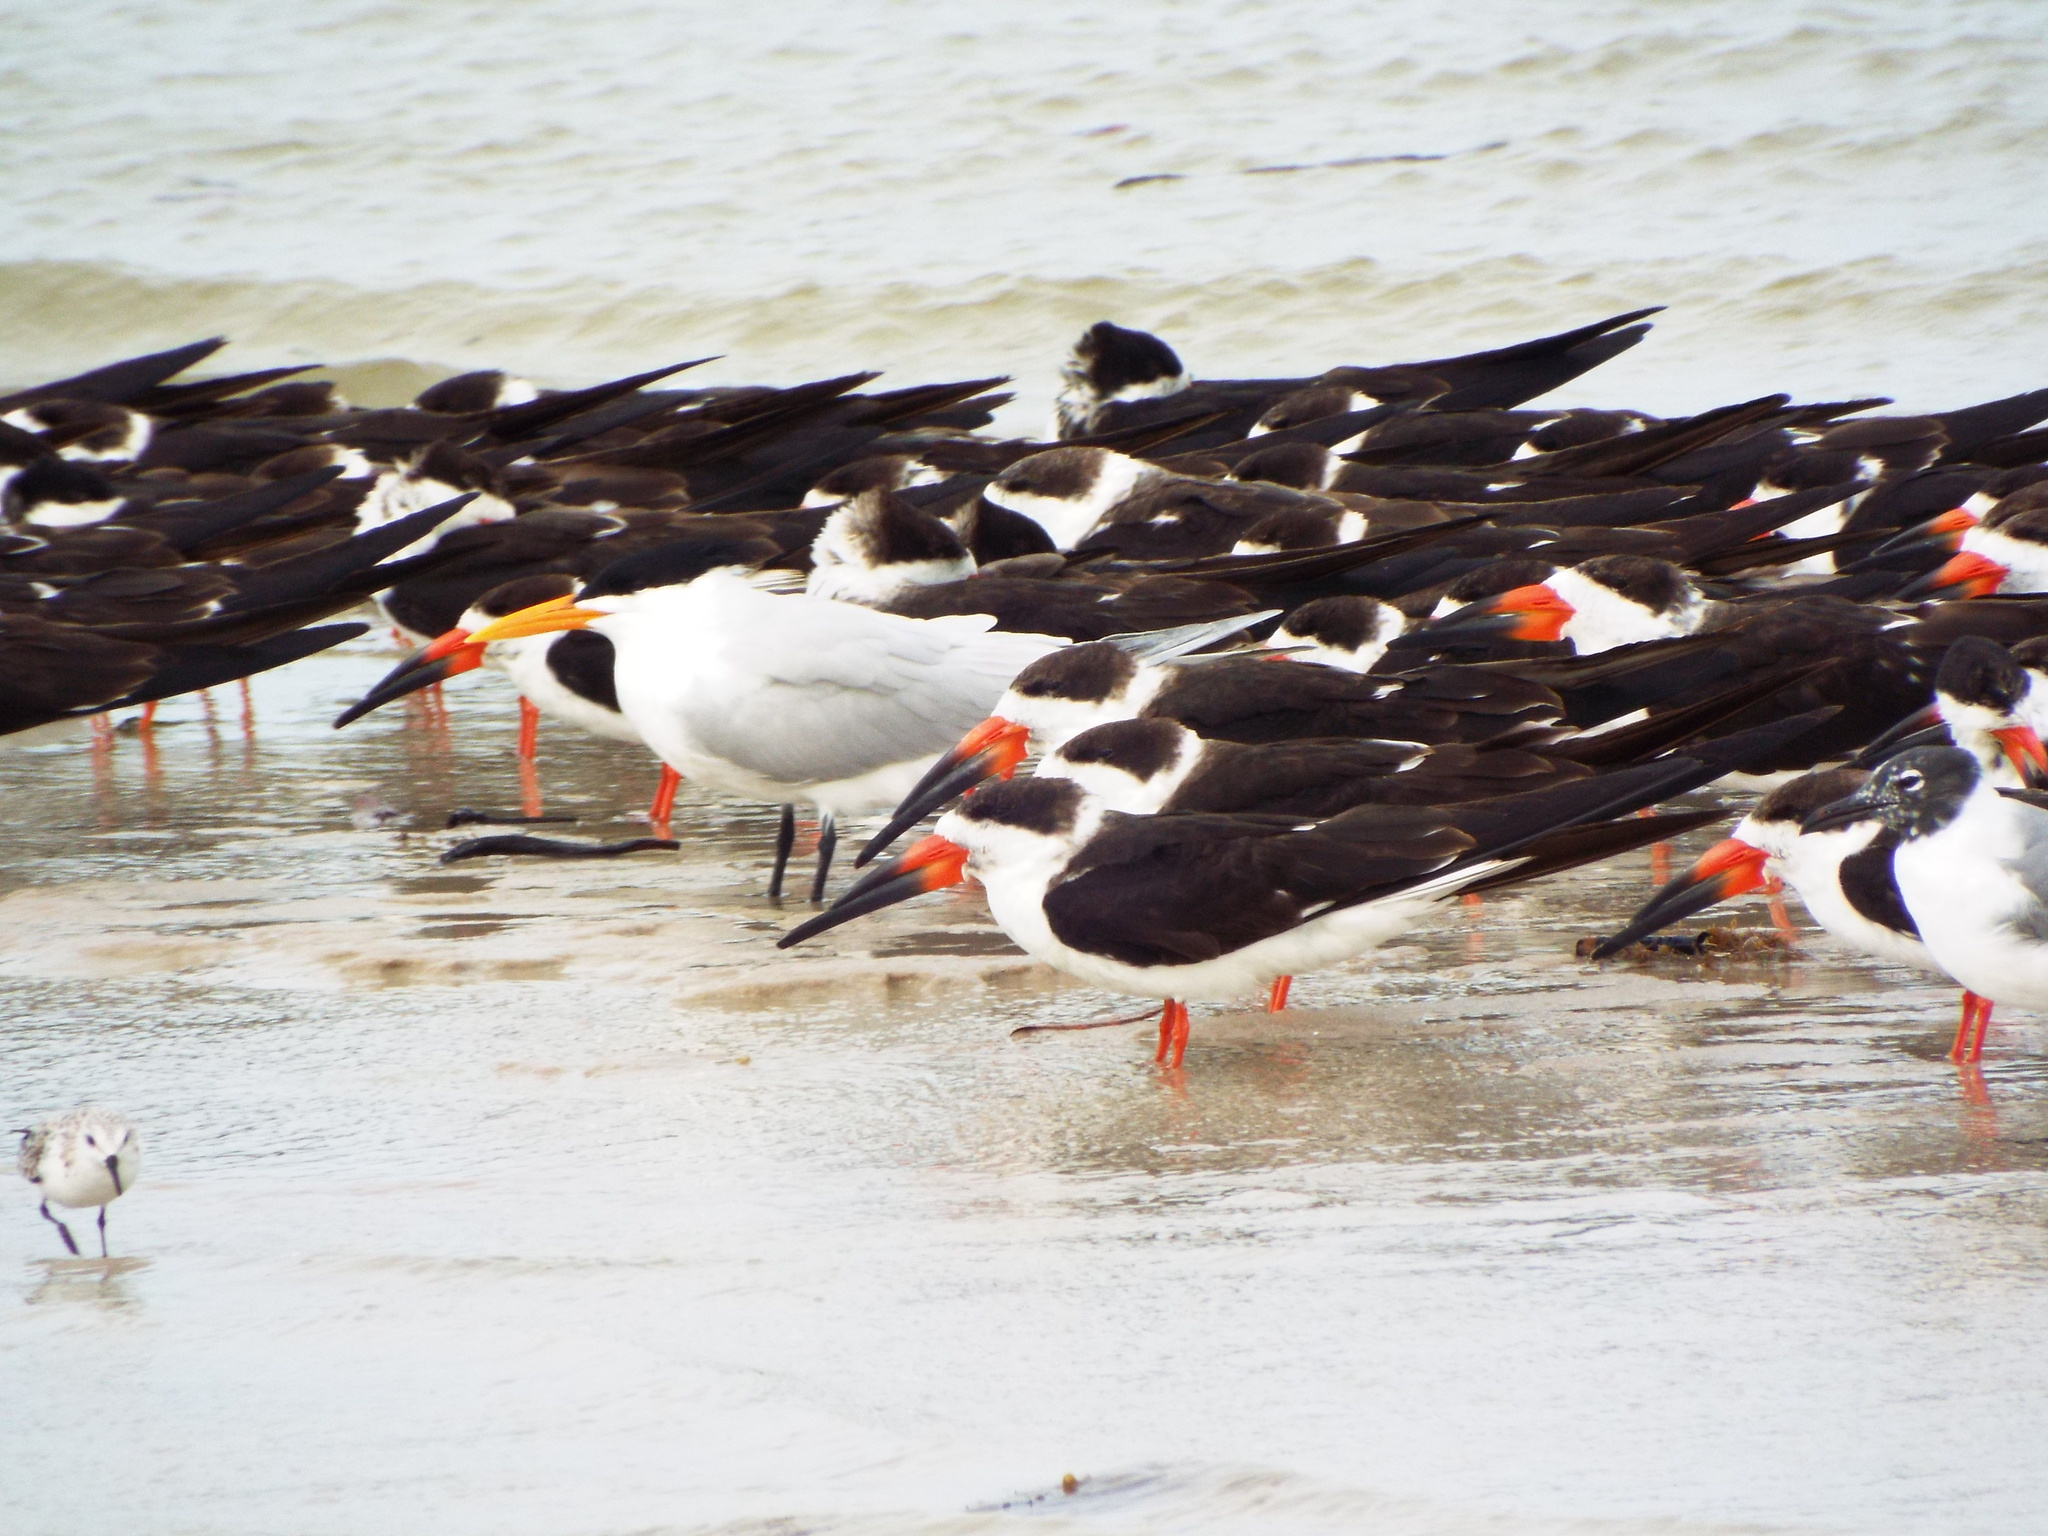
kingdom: Animalia
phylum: Chordata
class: Aves
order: Charadriiformes
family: Laridae
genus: Thalasseus
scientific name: Thalasseus maximus
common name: Royal tern
